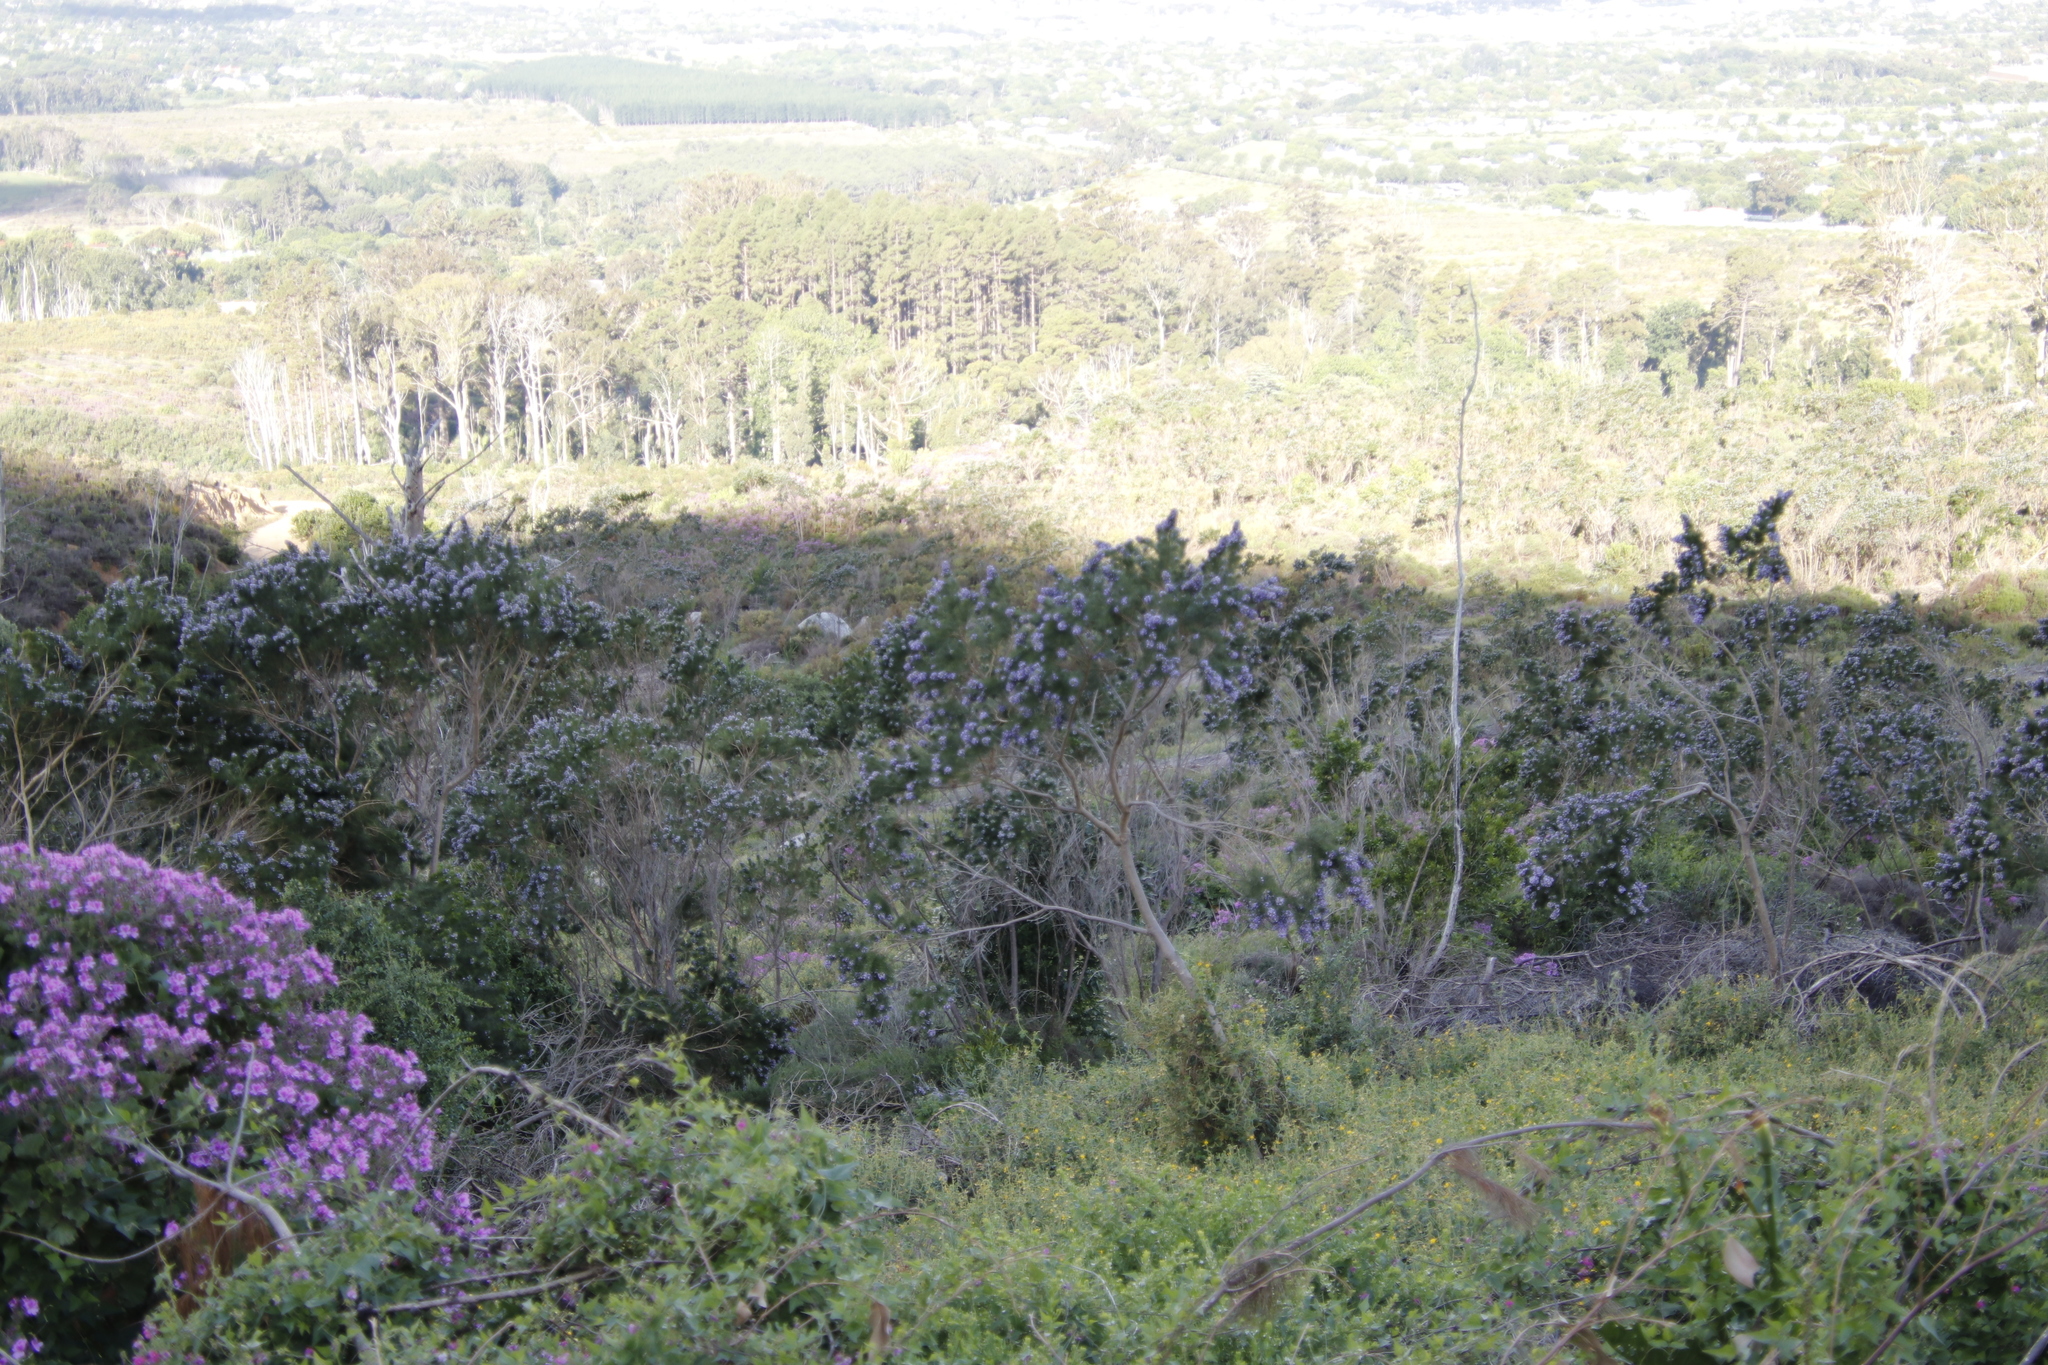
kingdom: Plantae
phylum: Tracheophyta
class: Magnoliopsida
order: Fabales
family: Fabaceae
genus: Psoralea
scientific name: Psoralea pinnata
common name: African scurfpea
